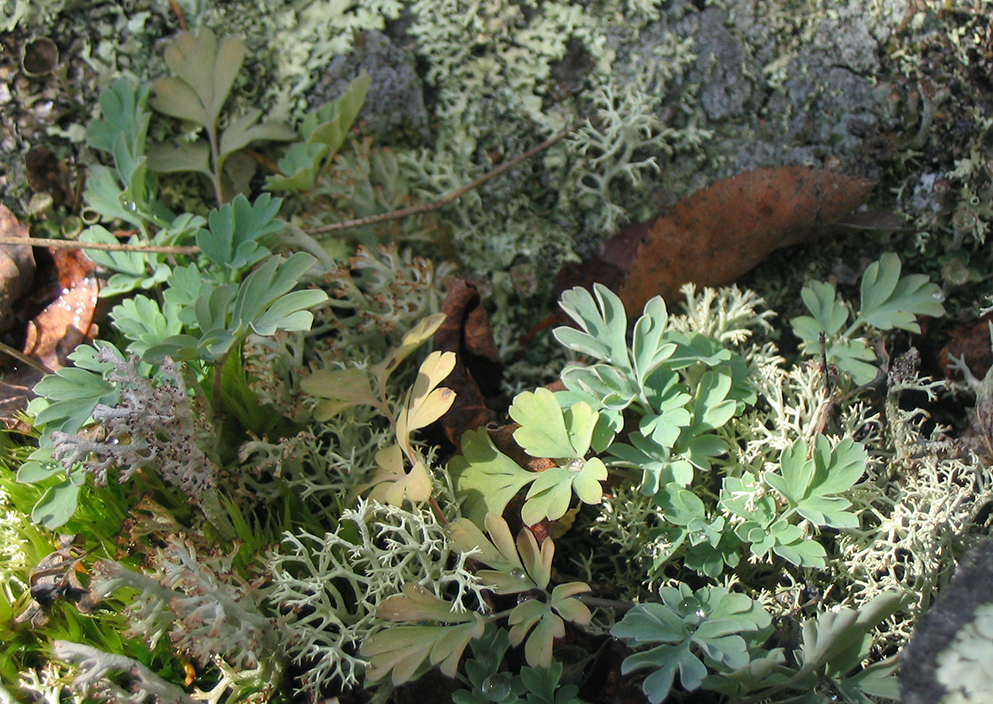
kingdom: Plantae
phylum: Tracheophyta
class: Magnoliopsida
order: Ranunculales
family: Papaveraceae
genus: Capnoides
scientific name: Capnoides sempervirens
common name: Rock harlequin
